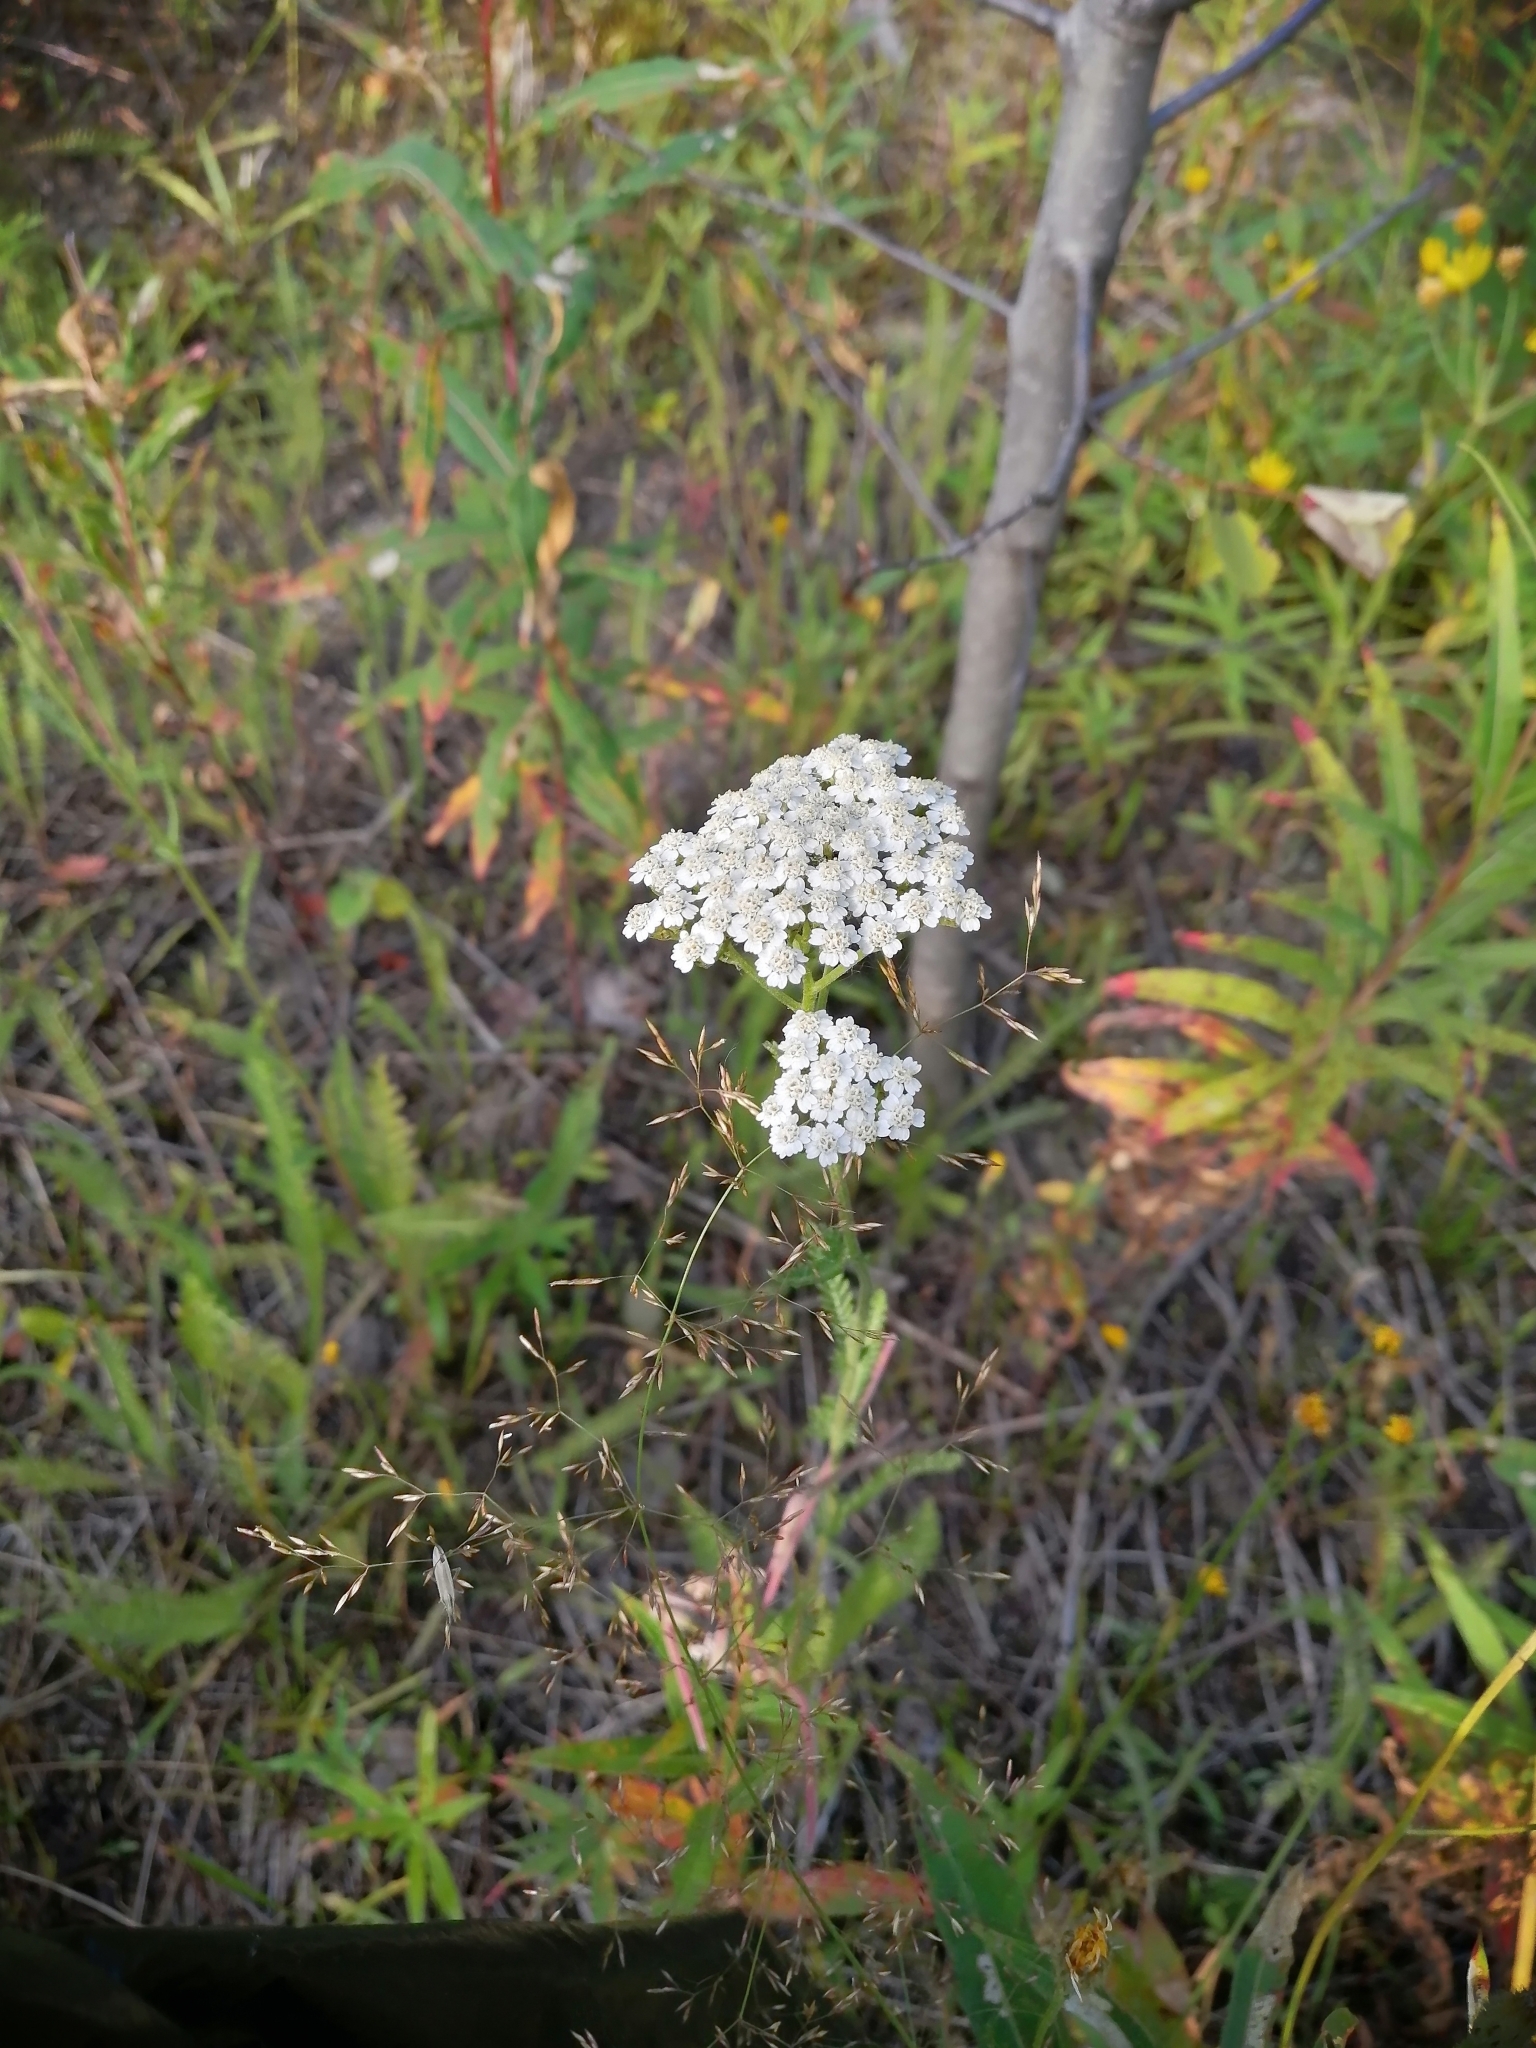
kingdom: Plantae
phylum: Tracheophyta
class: Magnoliopsida
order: Asterales
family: Asteraceae
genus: Achillea
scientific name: Achillea millefolium
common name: Yarrow
